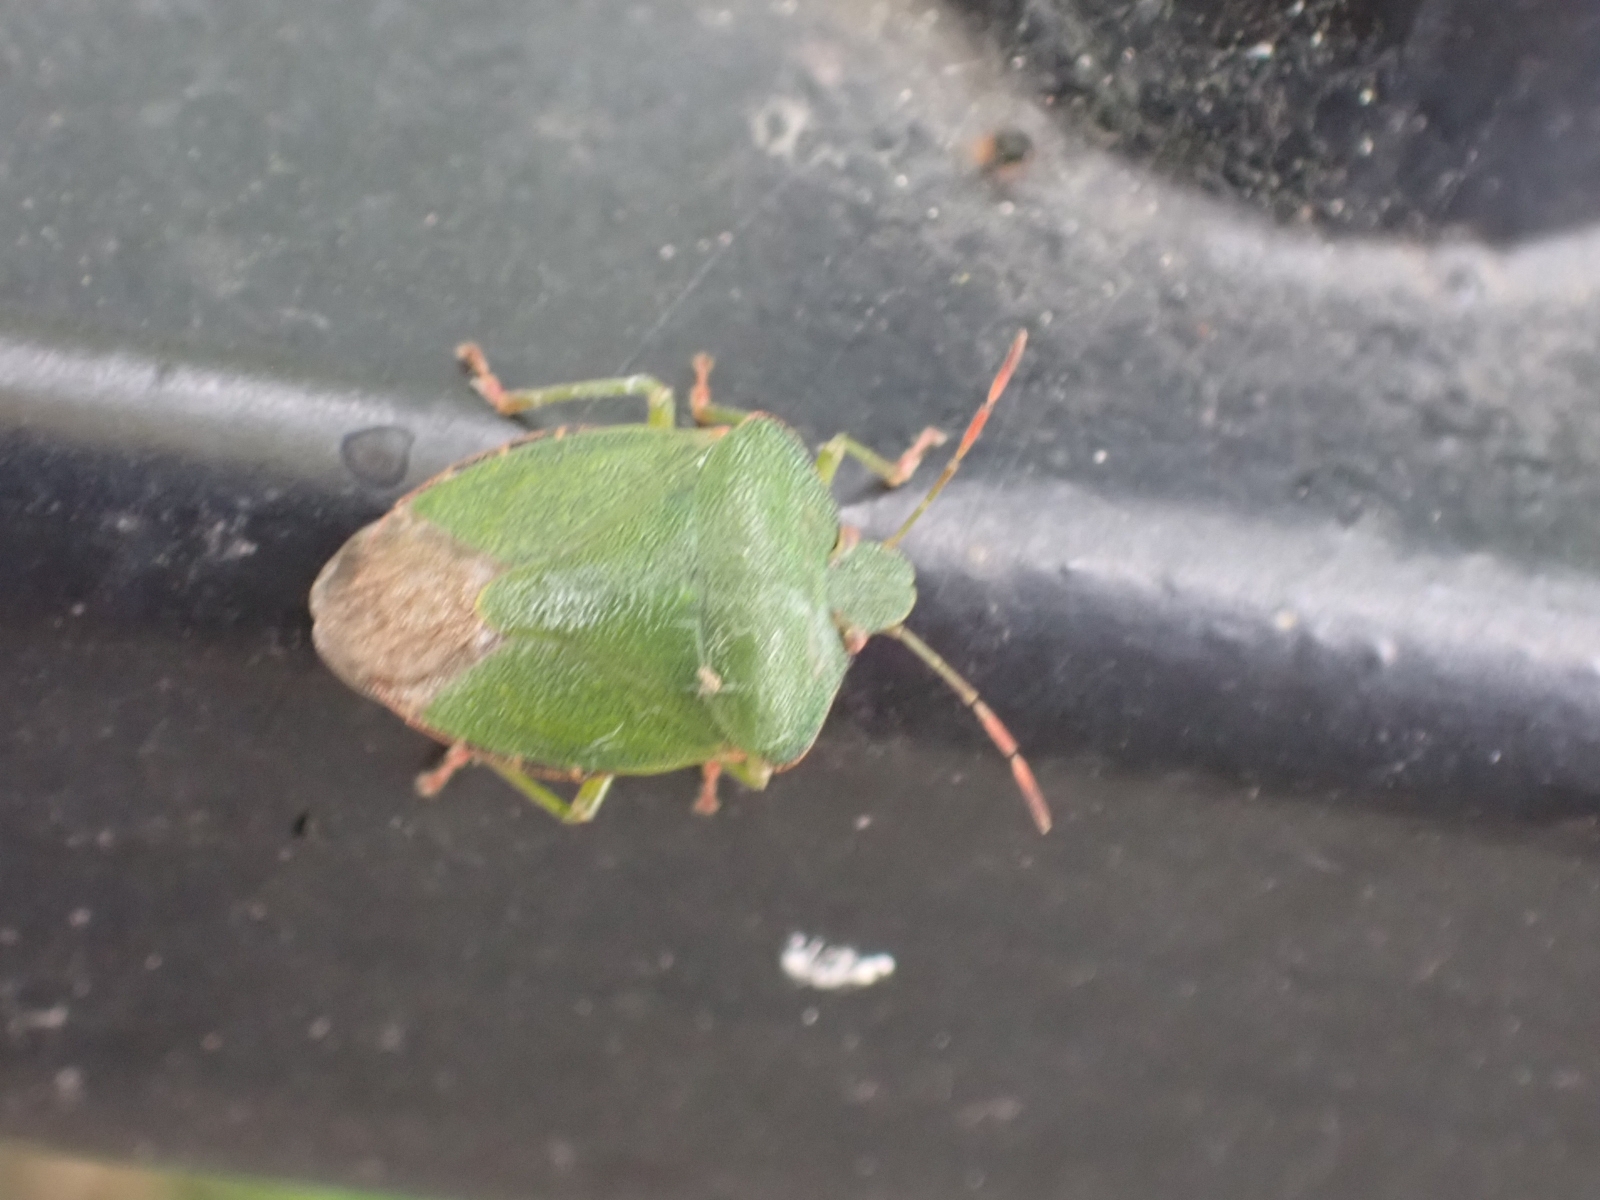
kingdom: Animalia
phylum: Arthropoda
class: Insecta
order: Hemiptera
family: Pentatomidae
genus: Palomena
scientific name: Palomena prasina
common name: Green shieldbug
